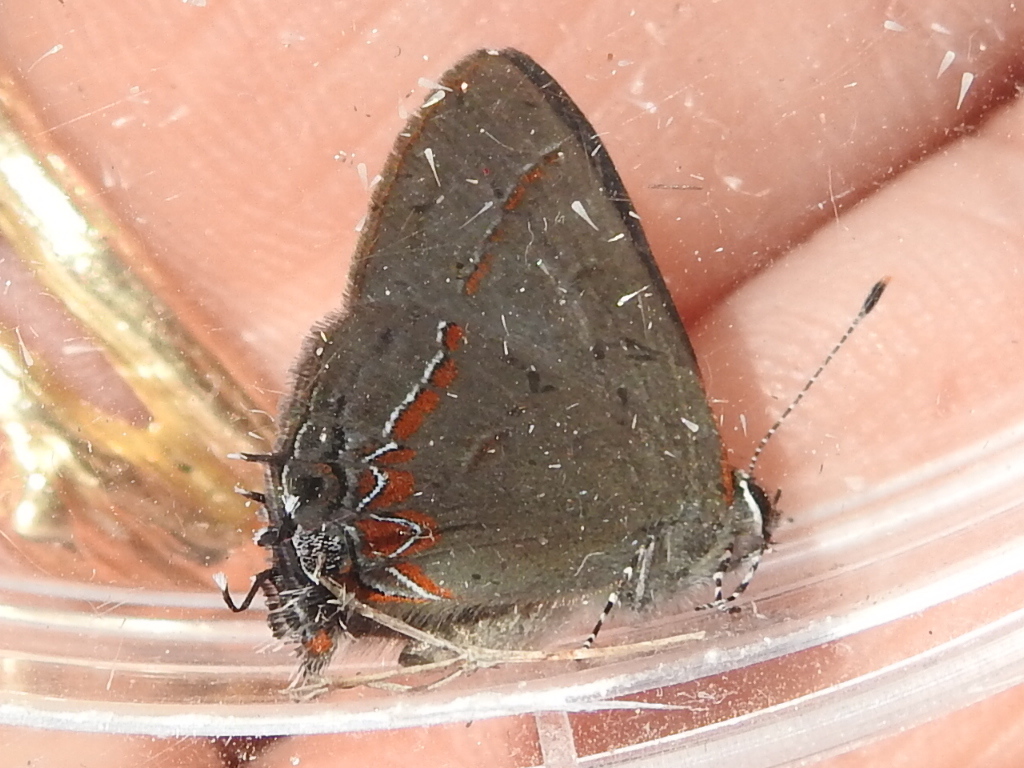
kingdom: Animalia
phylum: Arthropoda
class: Insecta
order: Lepidoptera
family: Lycaenidae
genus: Calycopis
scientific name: Calycopis cecrops
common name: Red-banded hairstreak
